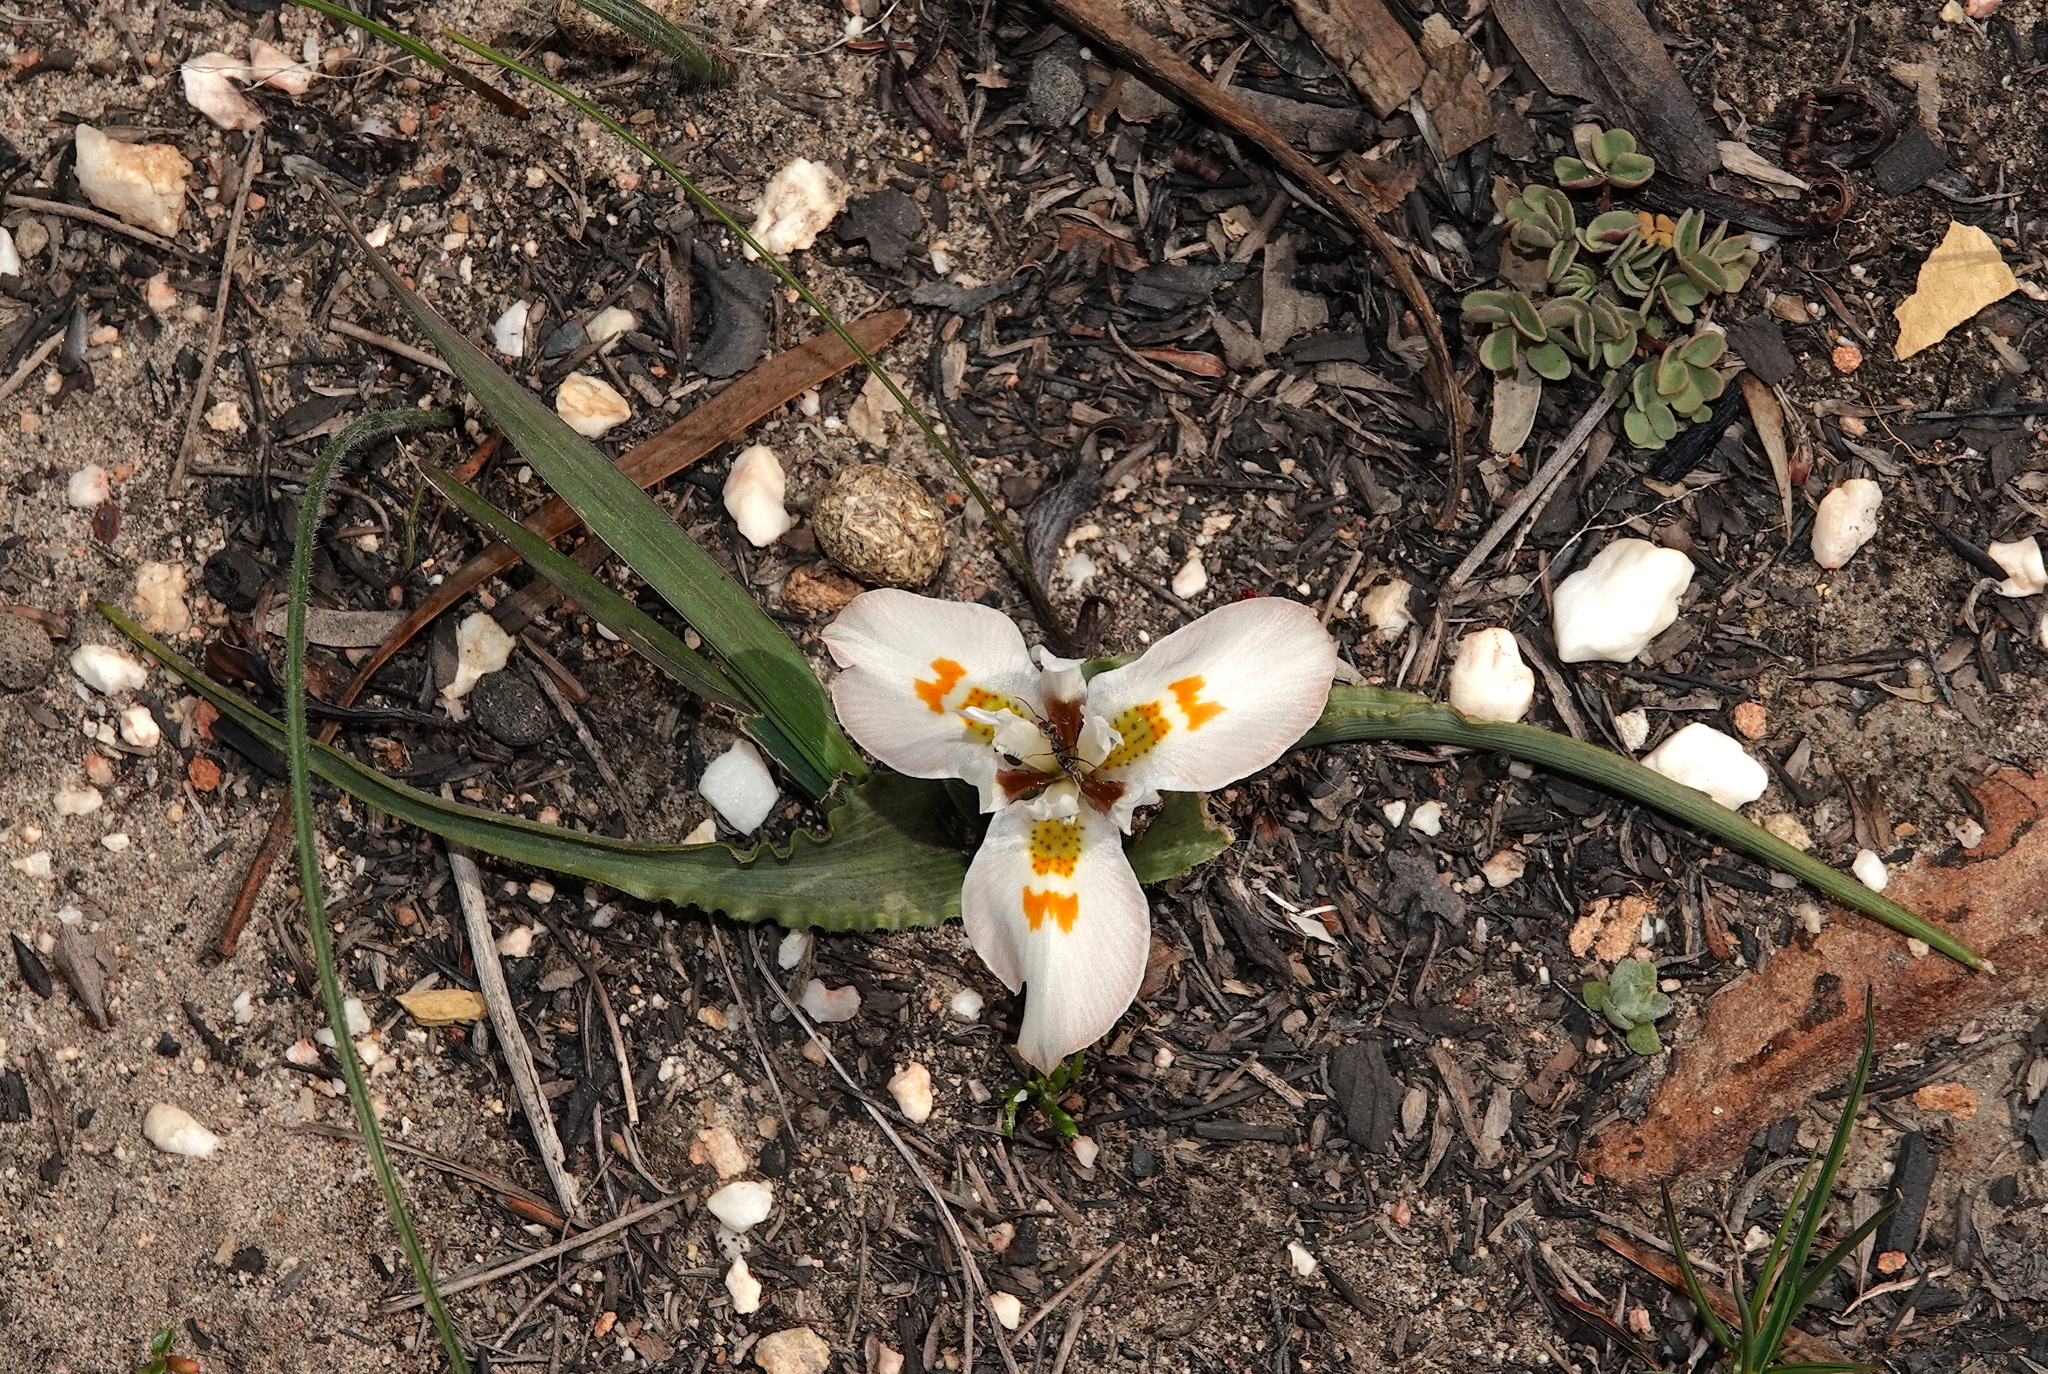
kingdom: Plantae
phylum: Tracheophyta
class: Liliopsida
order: Asparagales
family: Iridaceae
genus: Moraea
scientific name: Moraea ciliata
